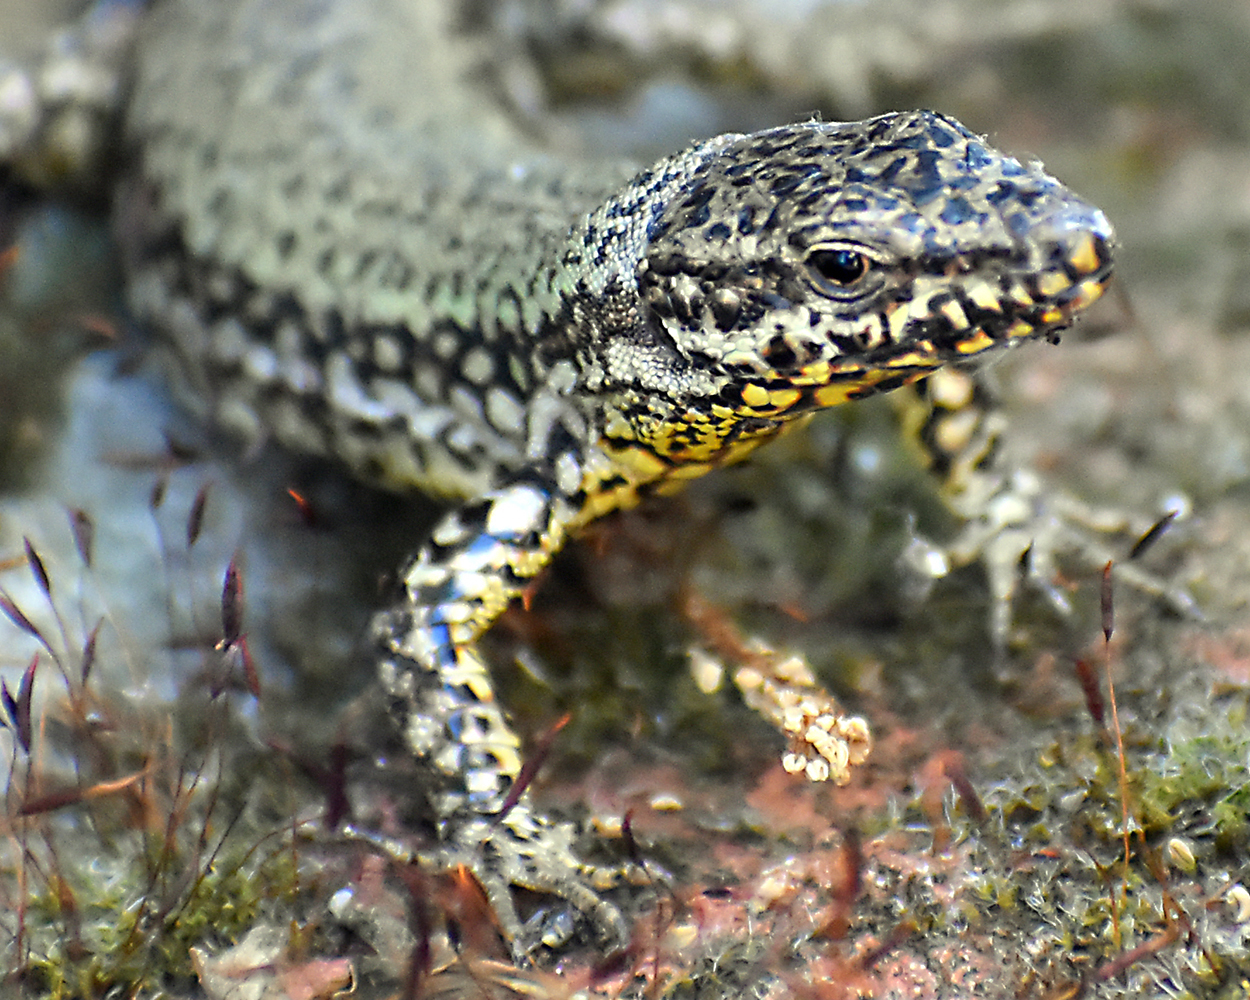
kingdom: Animalia
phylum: Chordata
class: Squamata
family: Lacertidae
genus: Podarcis
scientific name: Podarcis muralis
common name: Common wall lizard
